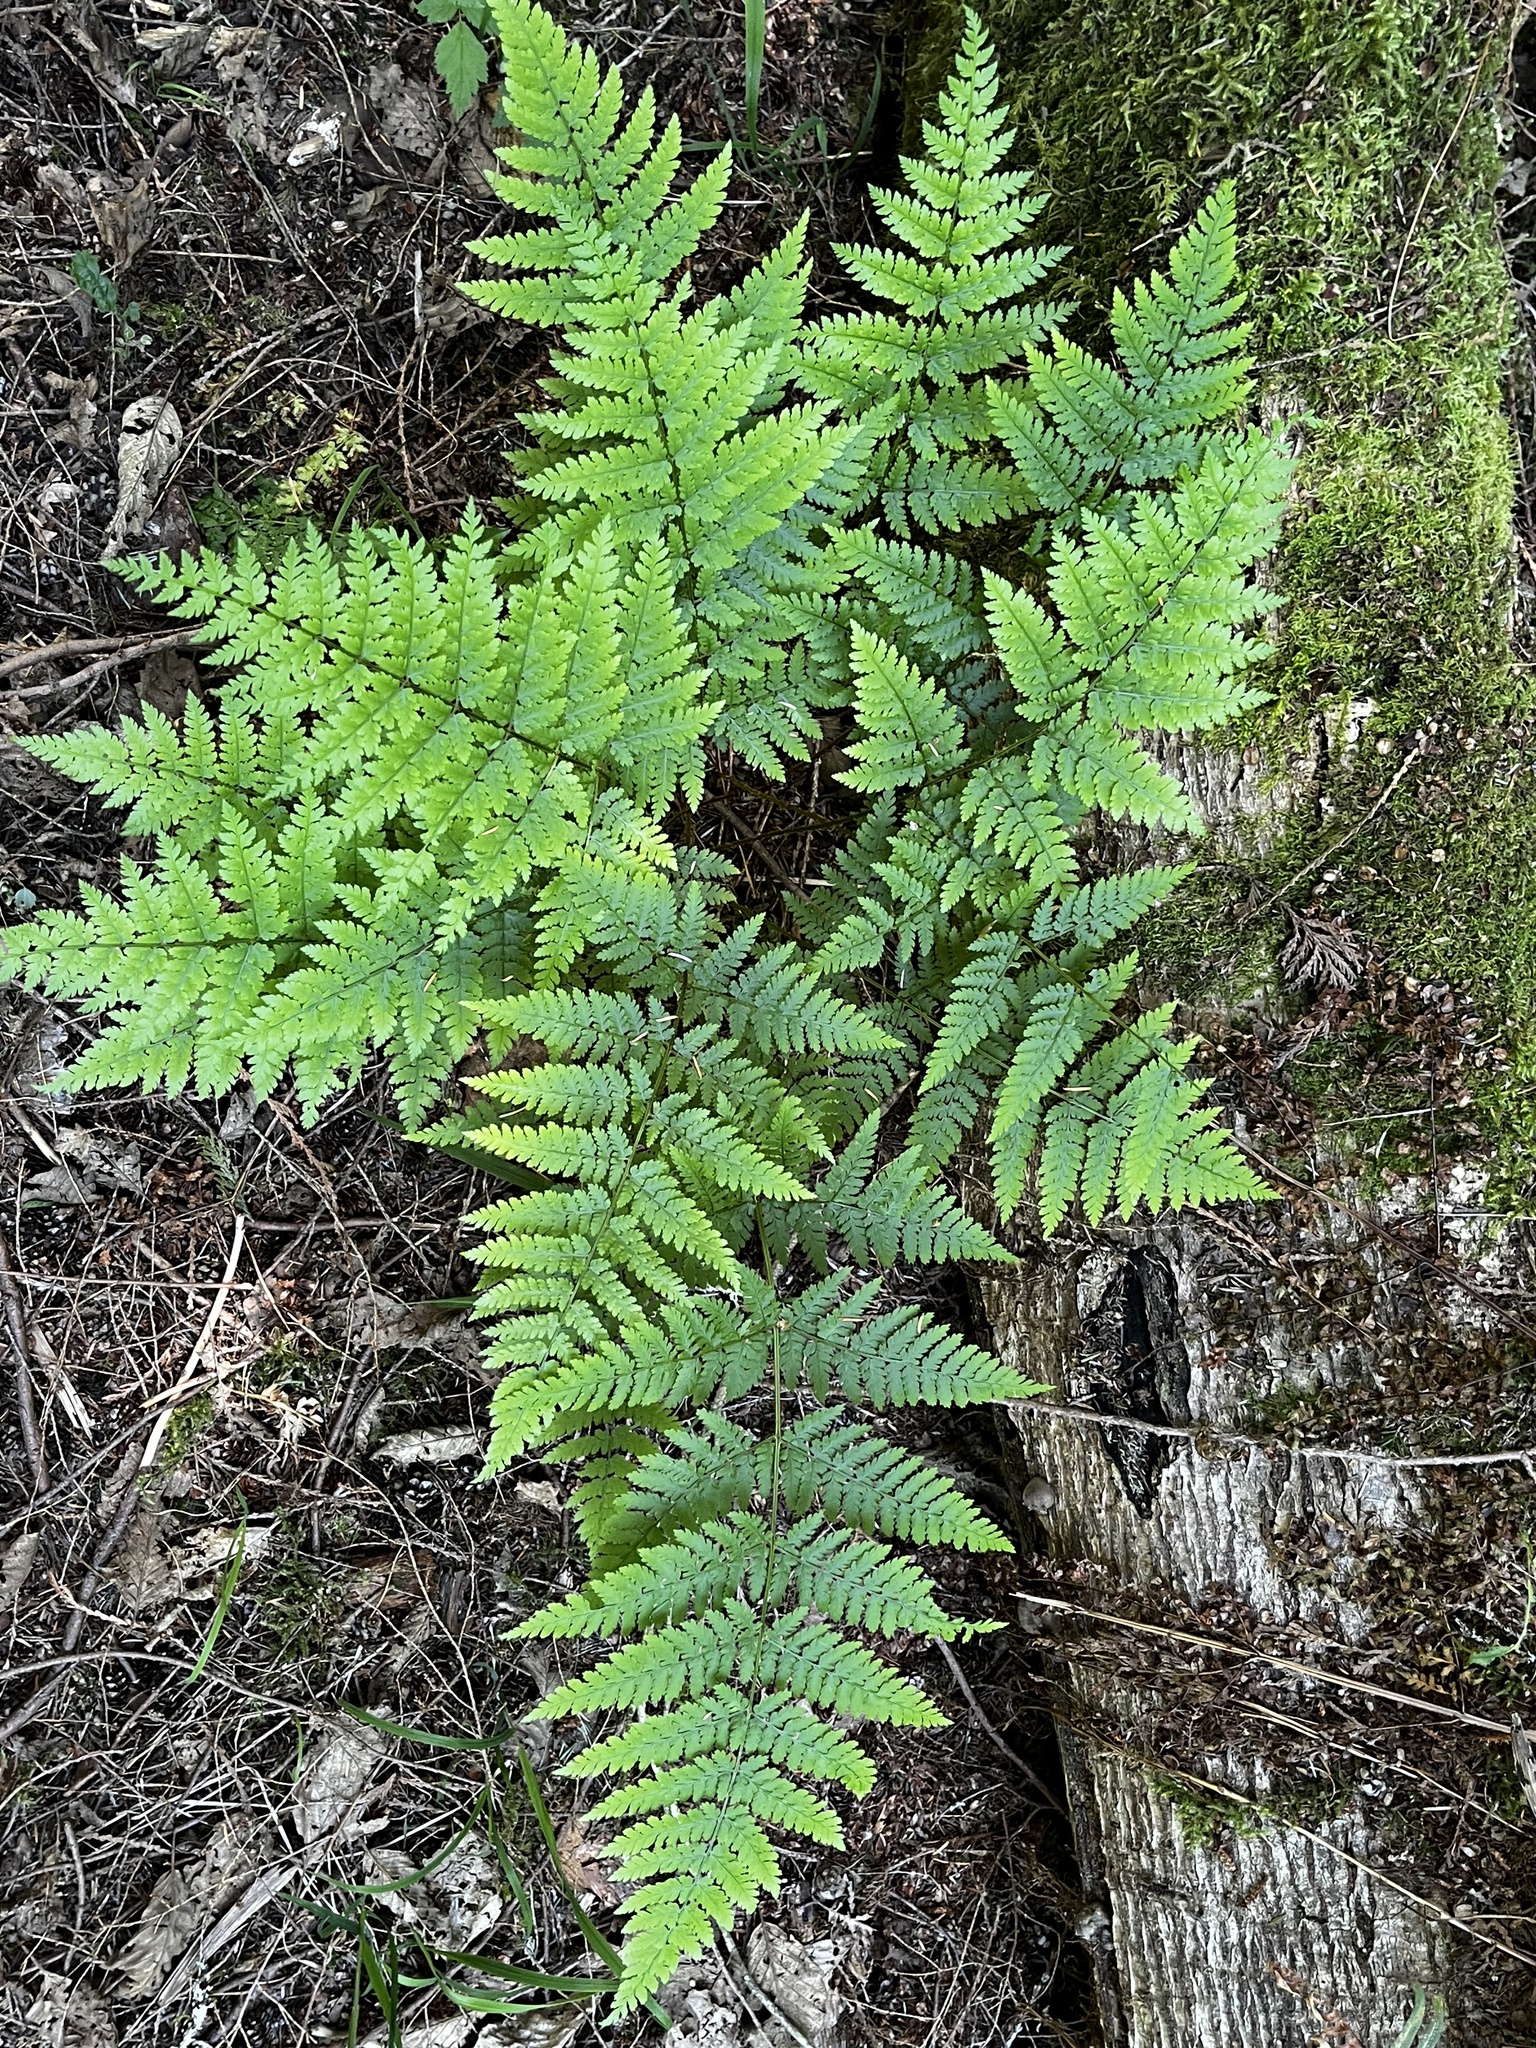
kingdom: Plantae
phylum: Tracheophyta
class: Polypodiopsida
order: Polypodiales
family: Dryopteridaceae
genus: Dryopteris
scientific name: Dryopteris expansa
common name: Northern buckler fern
